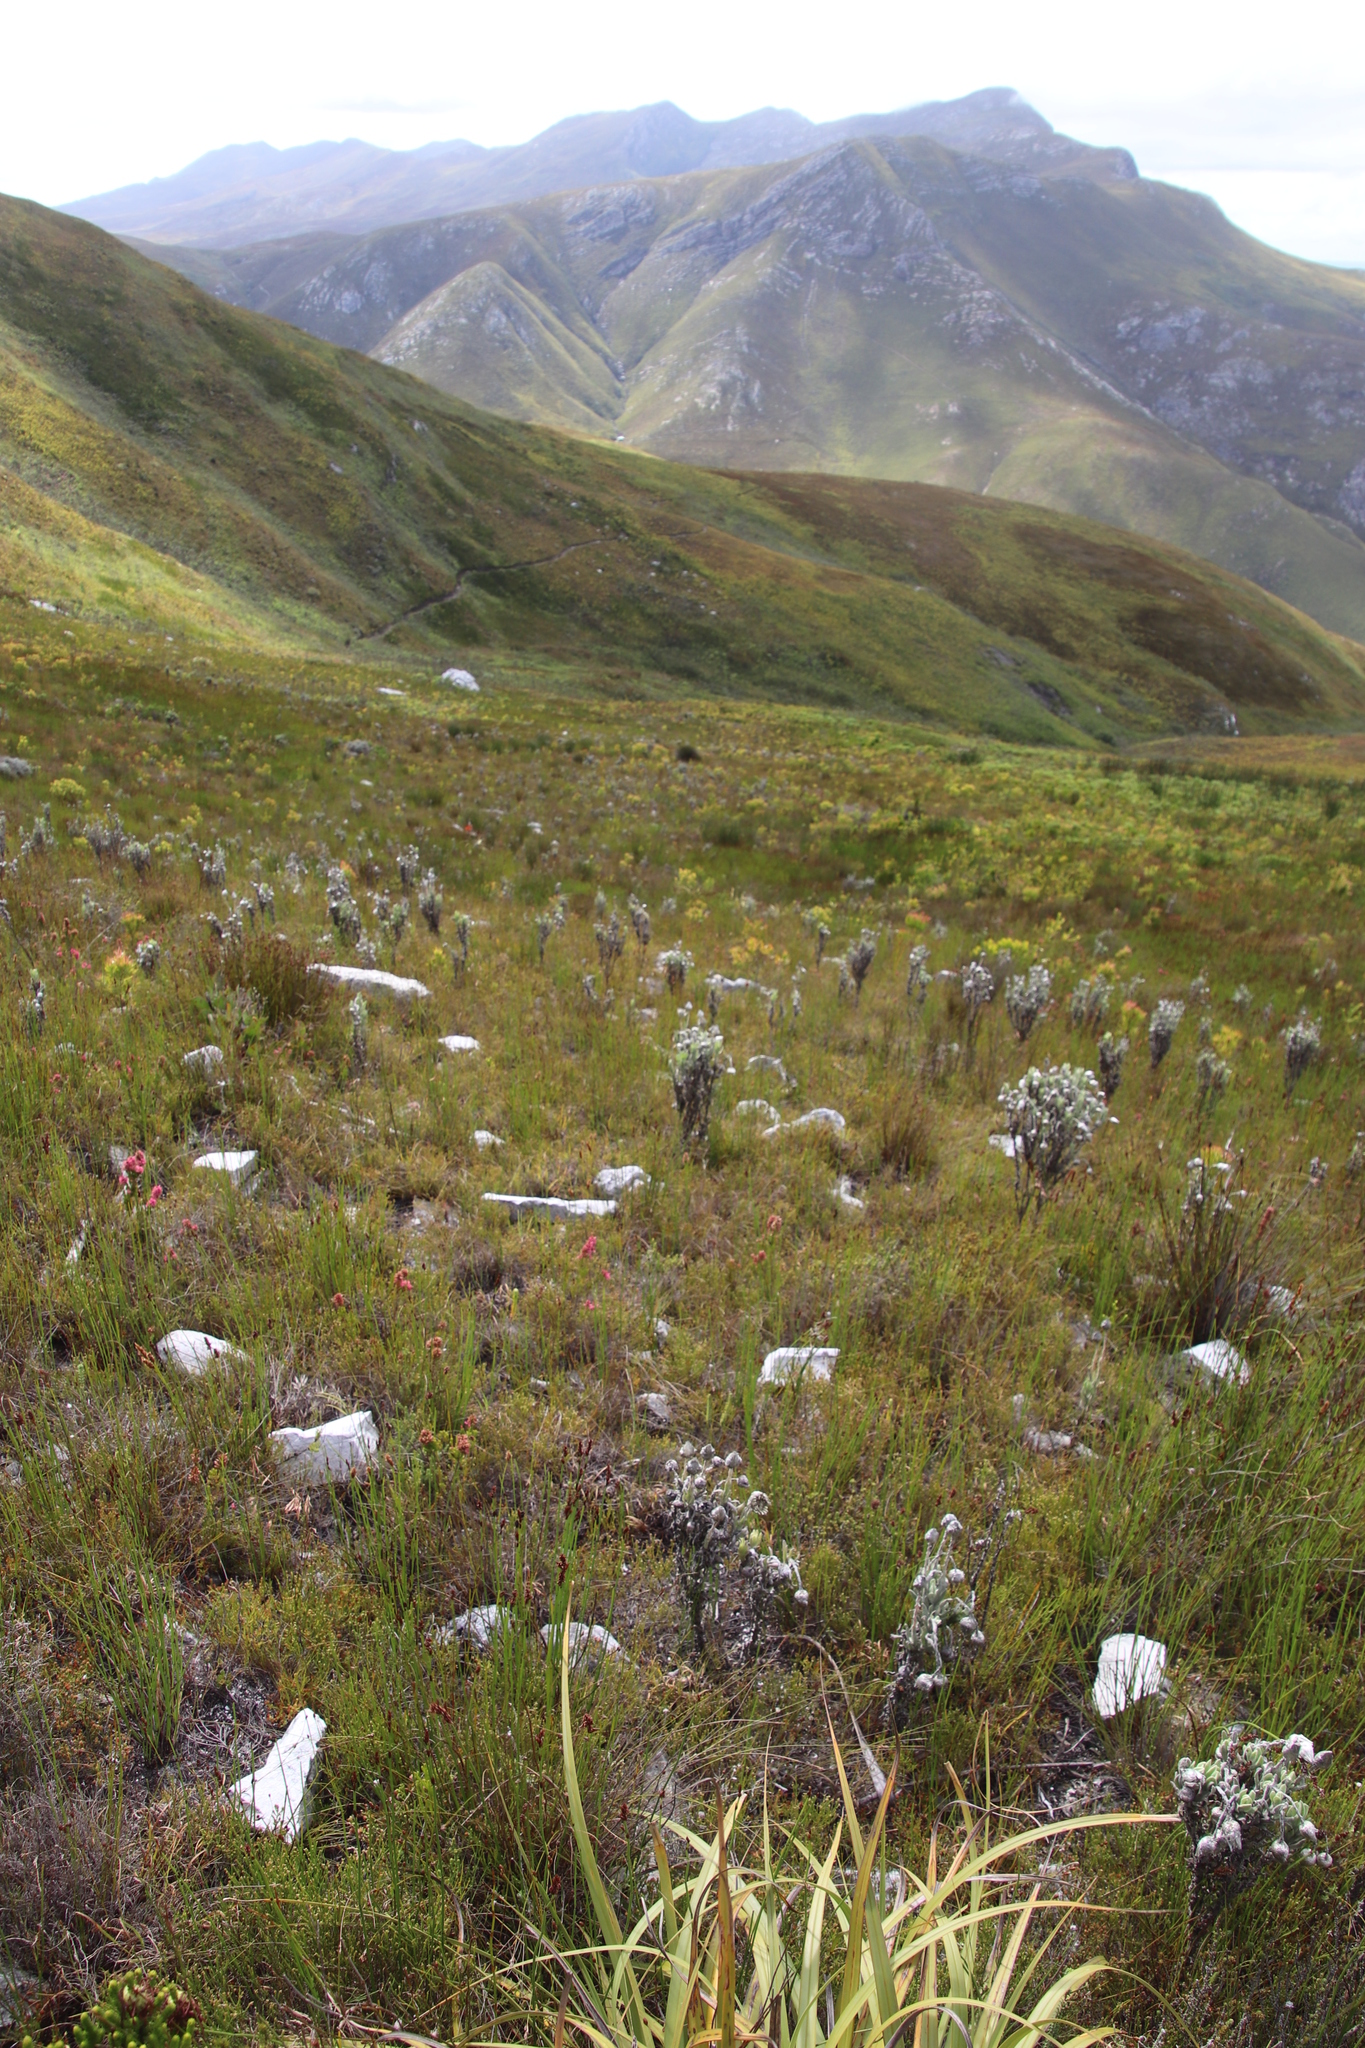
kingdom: Plantae
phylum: Tracheophyta
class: Magnoliopsida
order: Asterales
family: Asteraceae
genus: Syncarpha
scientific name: Syncarpha vestita
